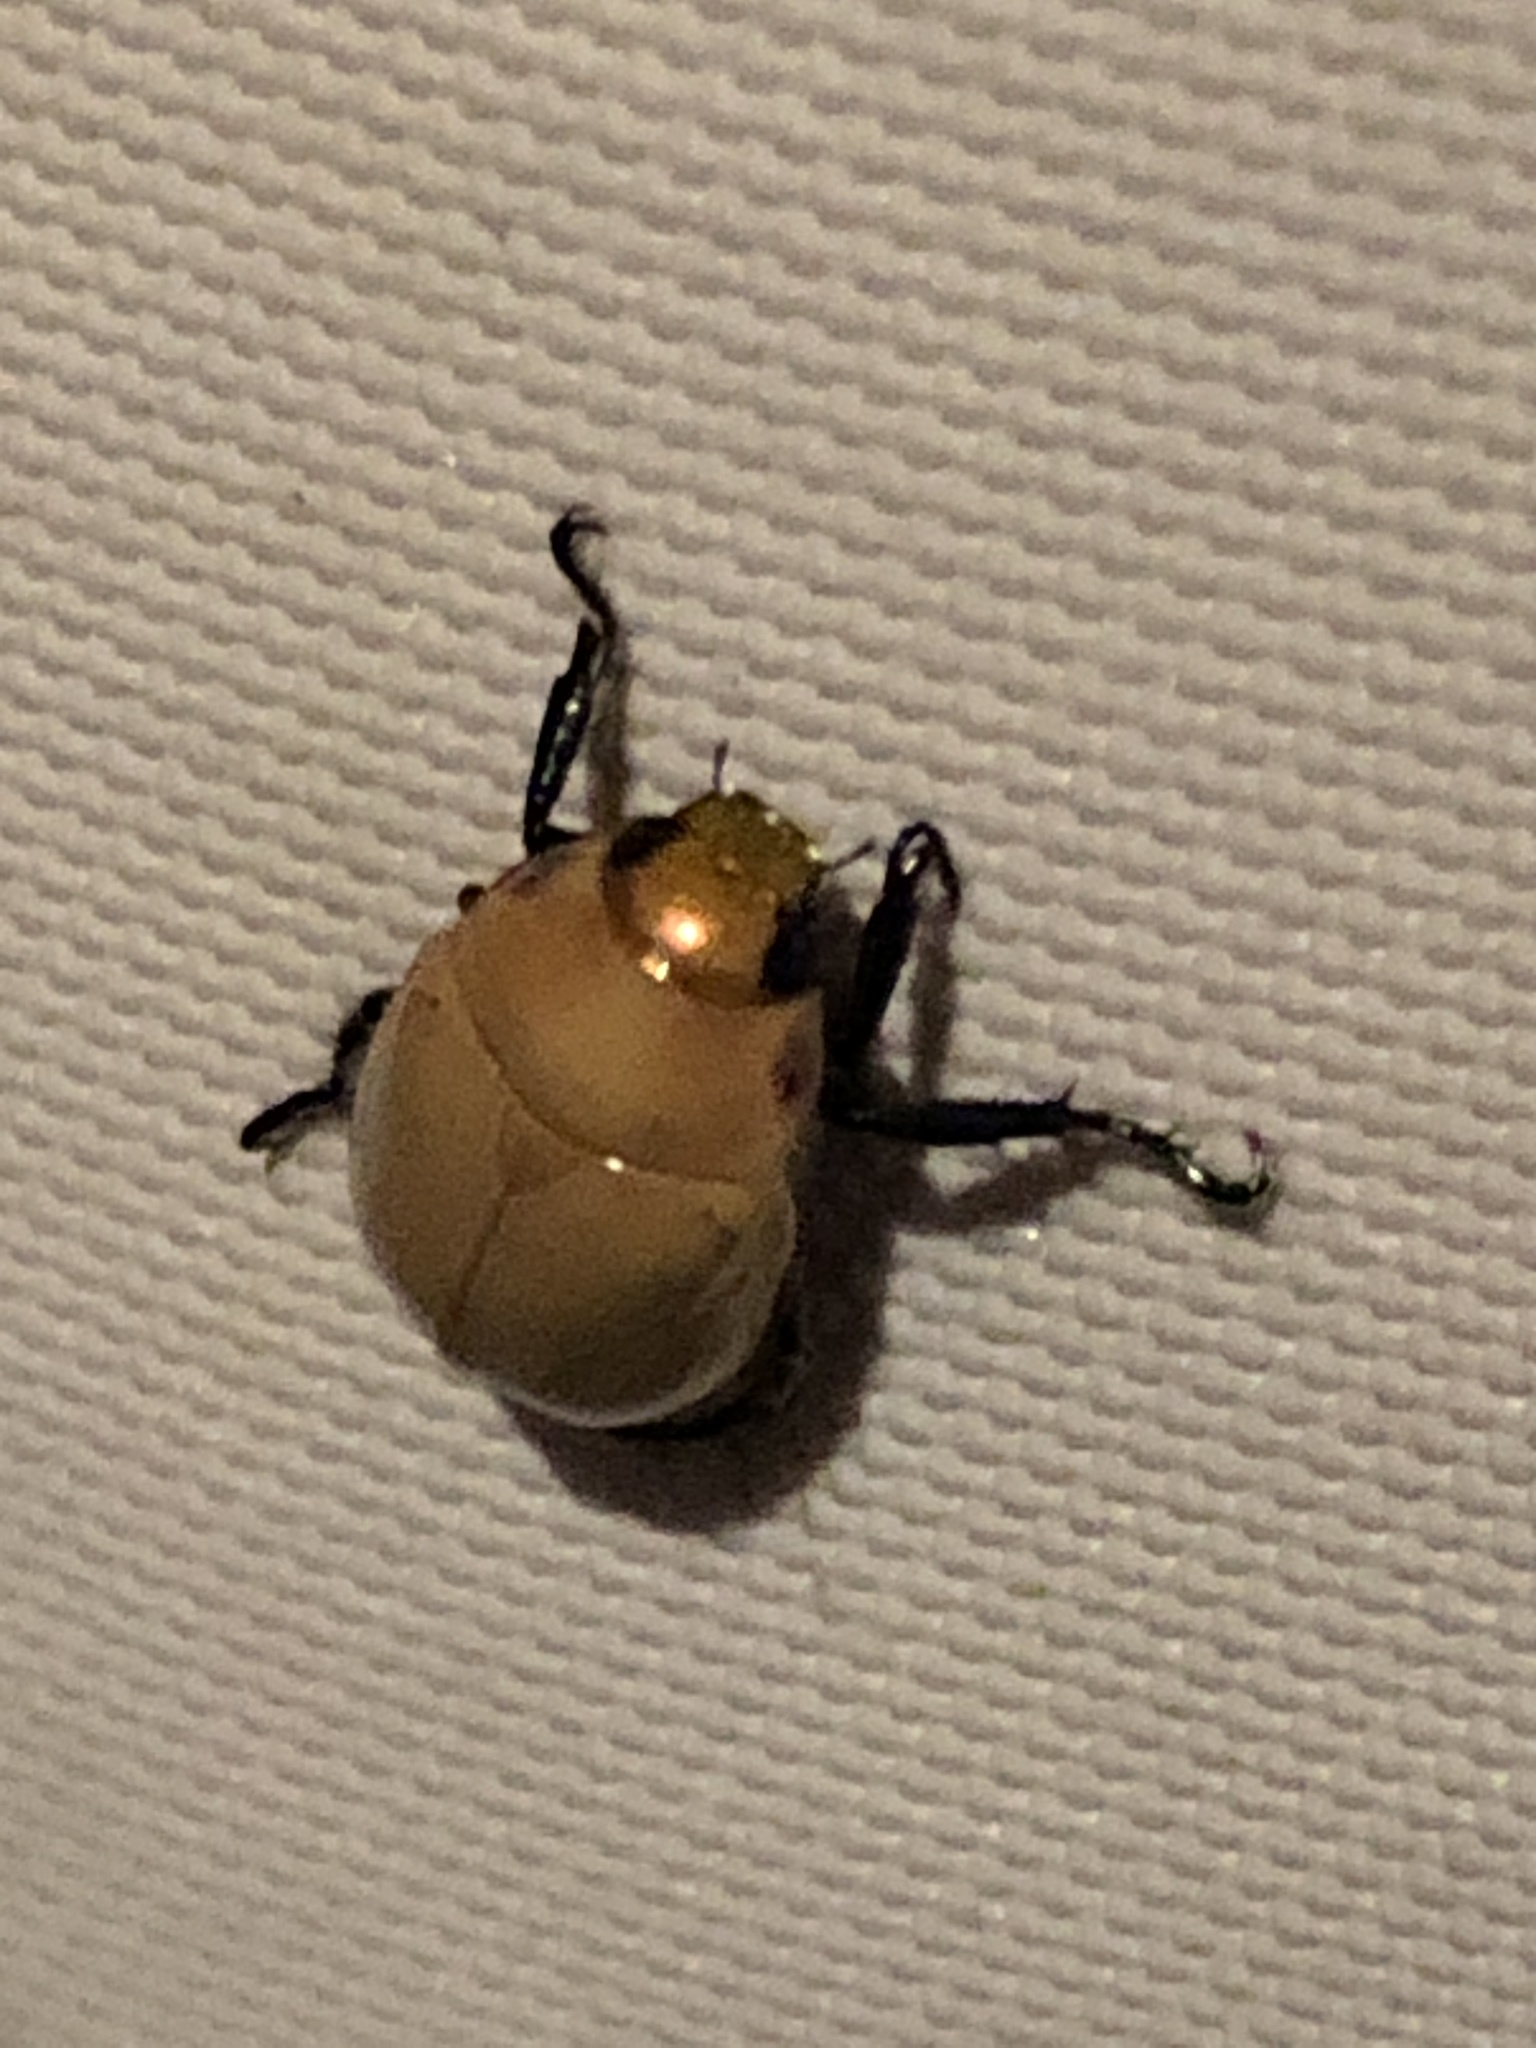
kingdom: Animalia
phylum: Arthropoda
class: Insecta
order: Coleoptera
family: Scarabaeidae
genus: Callistethus
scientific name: Callistethus plagiicollis
